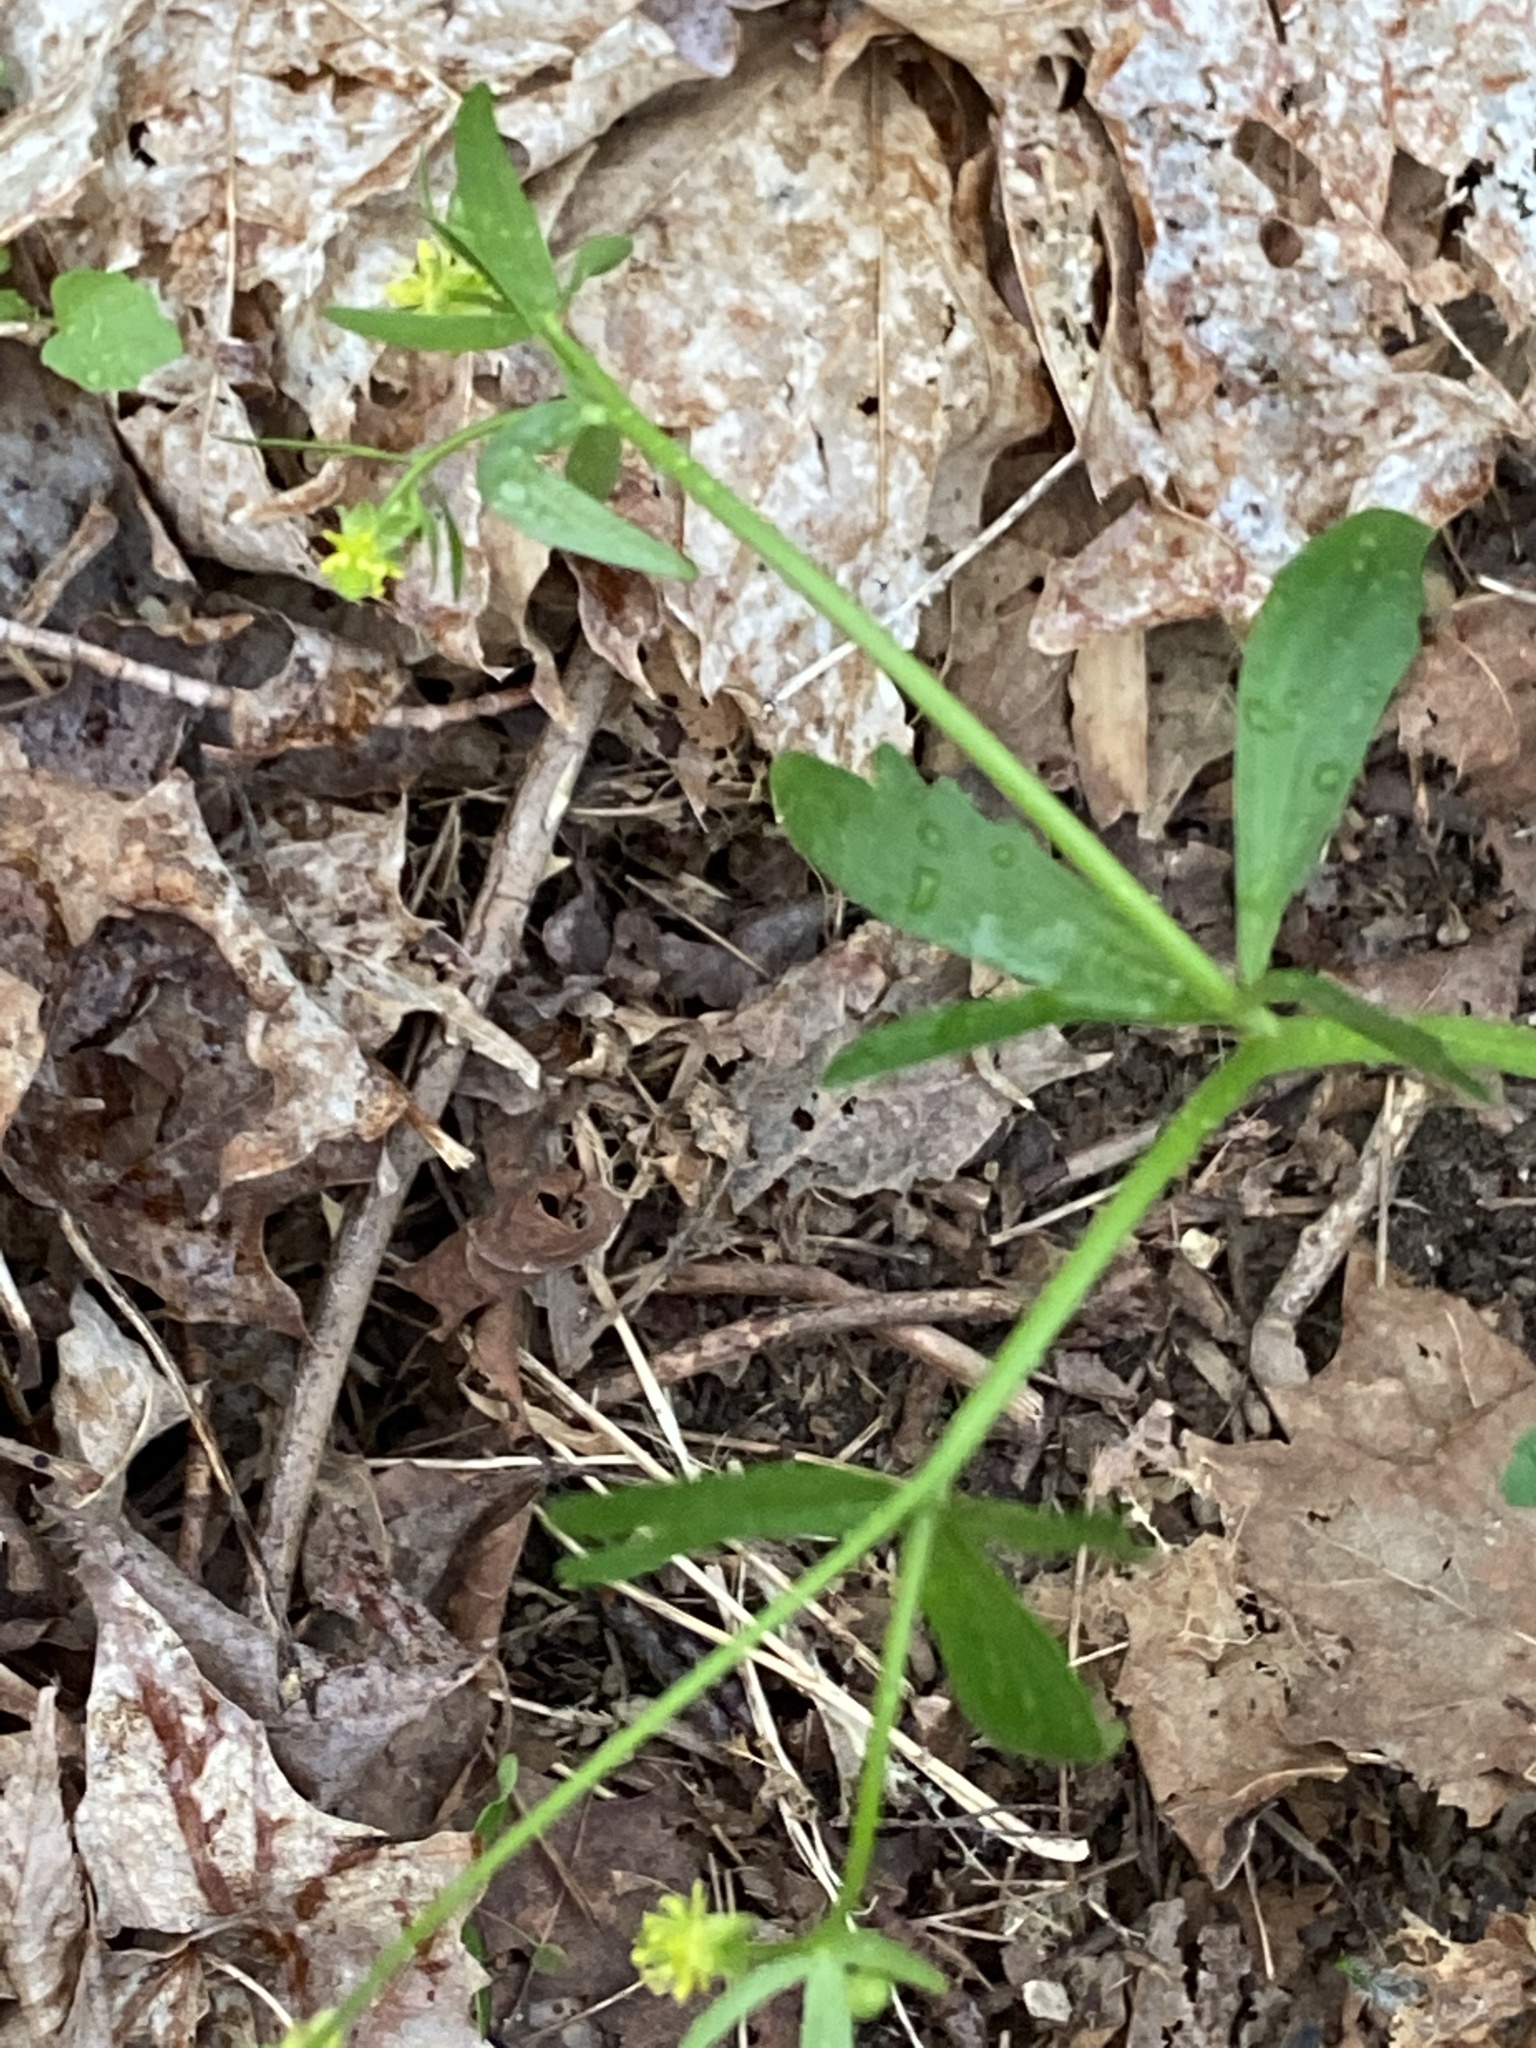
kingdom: Plantae
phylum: Tracheophyta
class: Magnoliopsida
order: Ranunculales
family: Ranunculaceae
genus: Ranunculus
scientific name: Ranunculus abortivus
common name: Early wood buttercup
